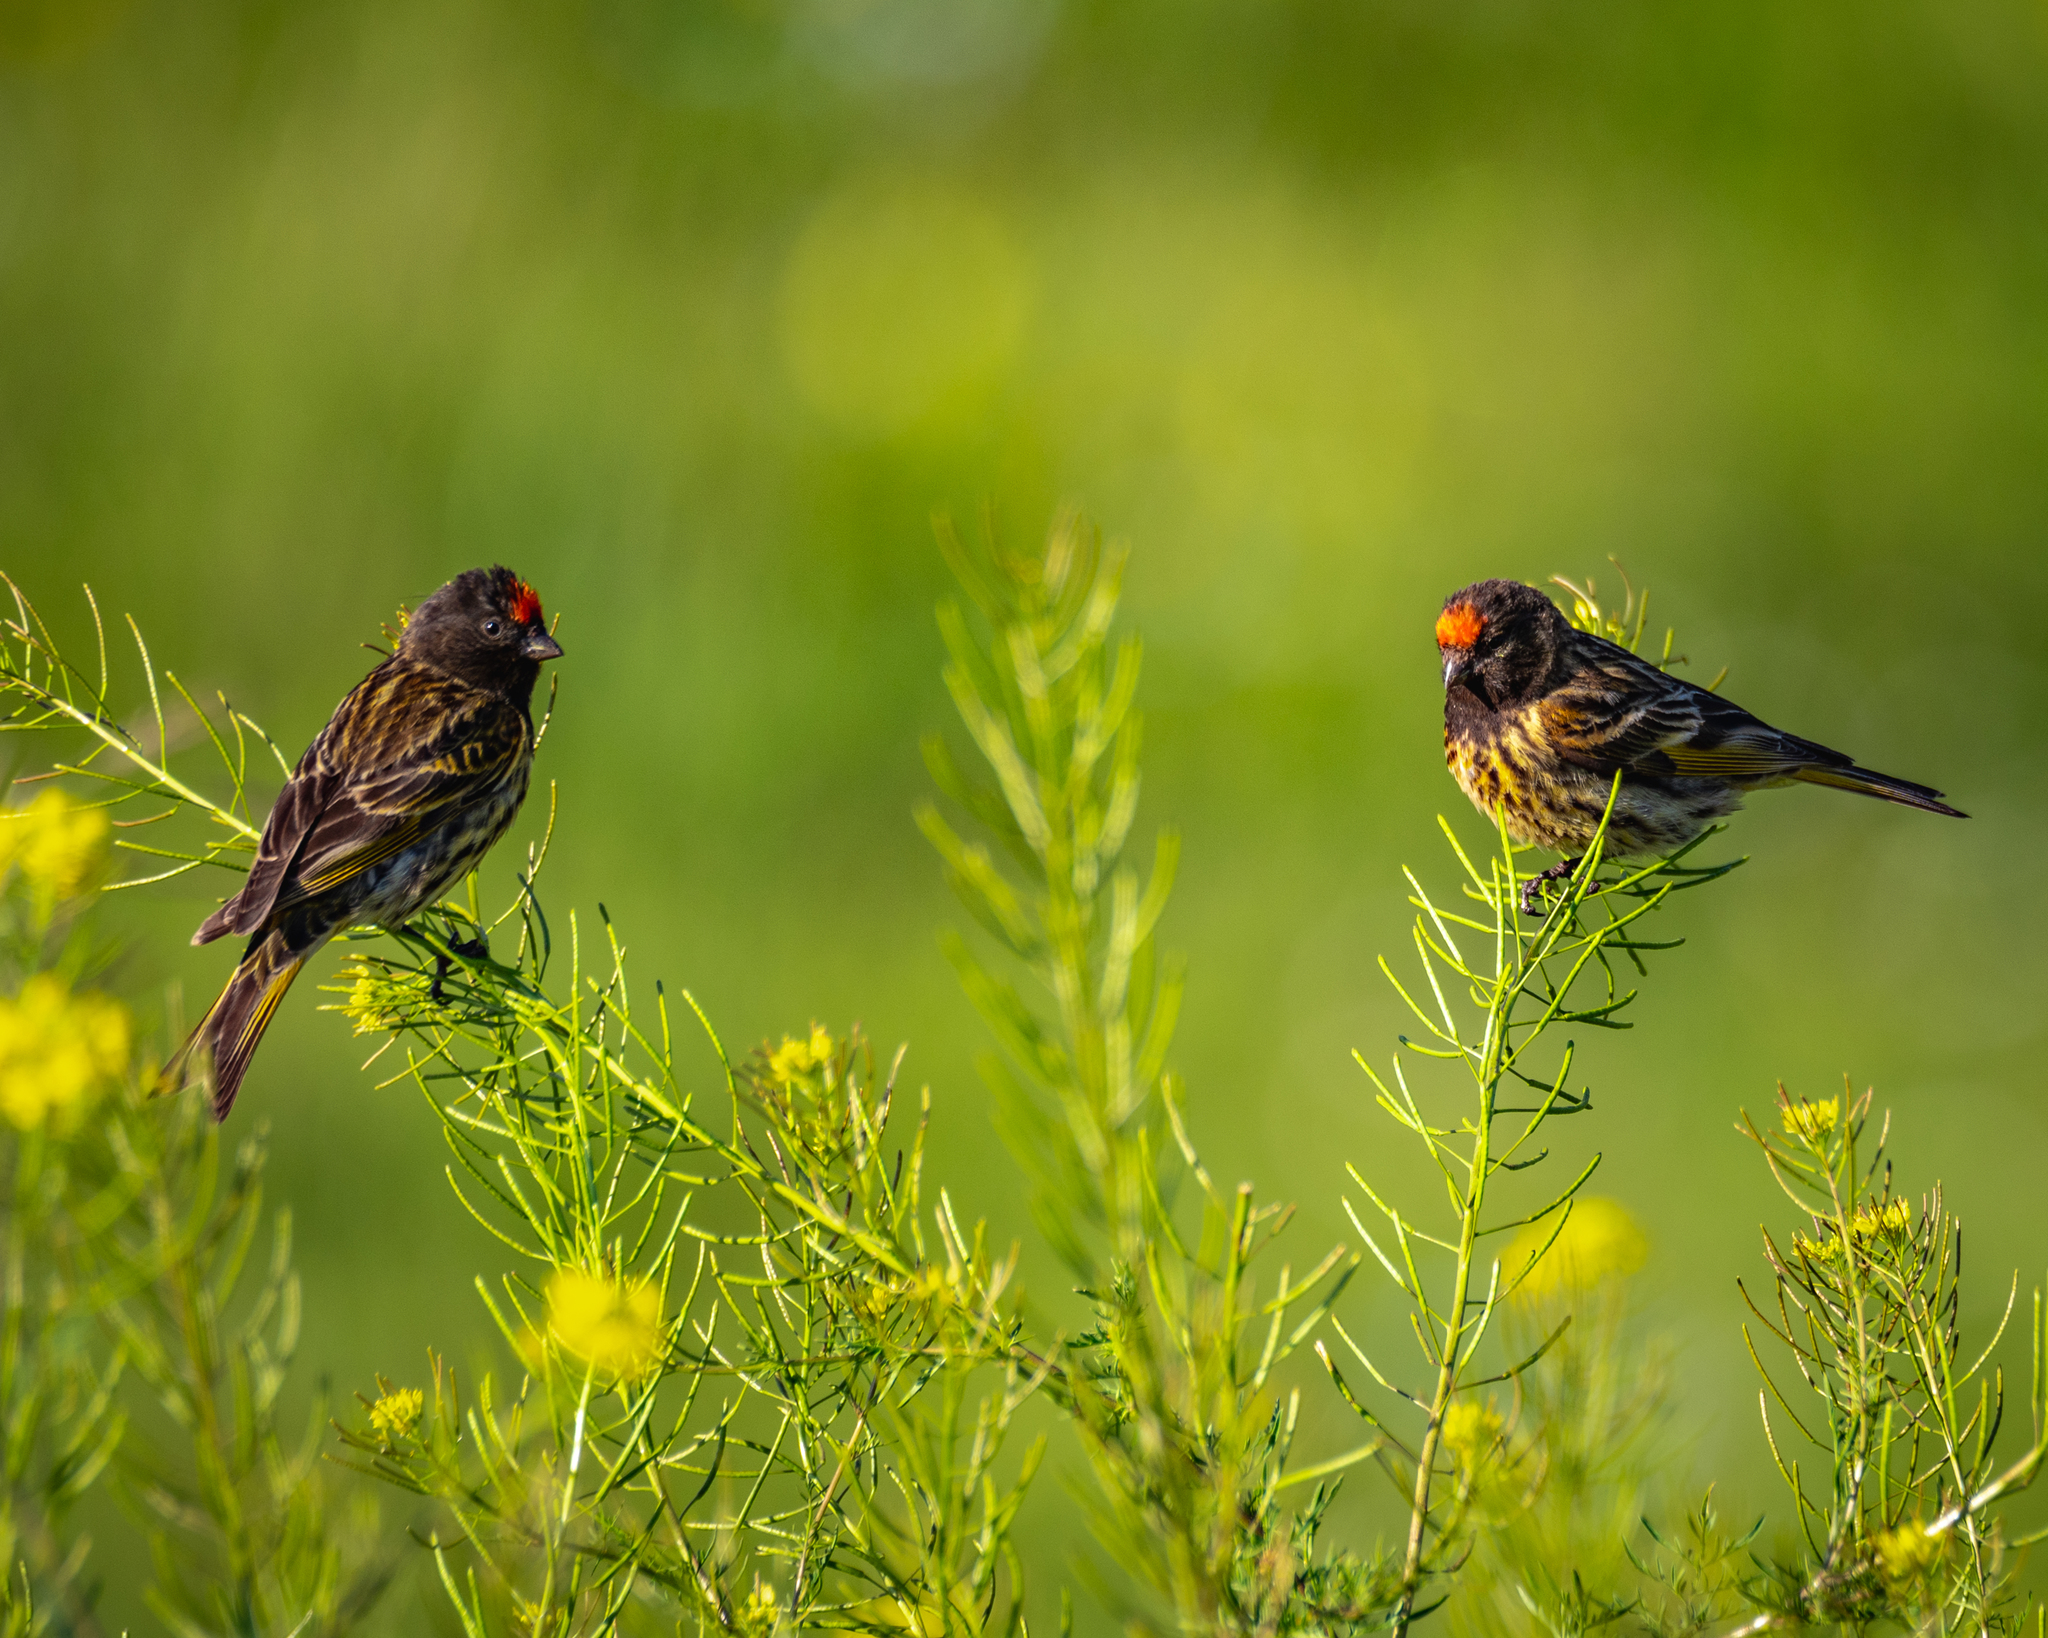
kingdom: Animalia
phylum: Chordata
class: Aves
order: Passeriformes
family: Fringillidae
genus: Serinus
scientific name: Serinus pusillus
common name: Red-fronted serin
